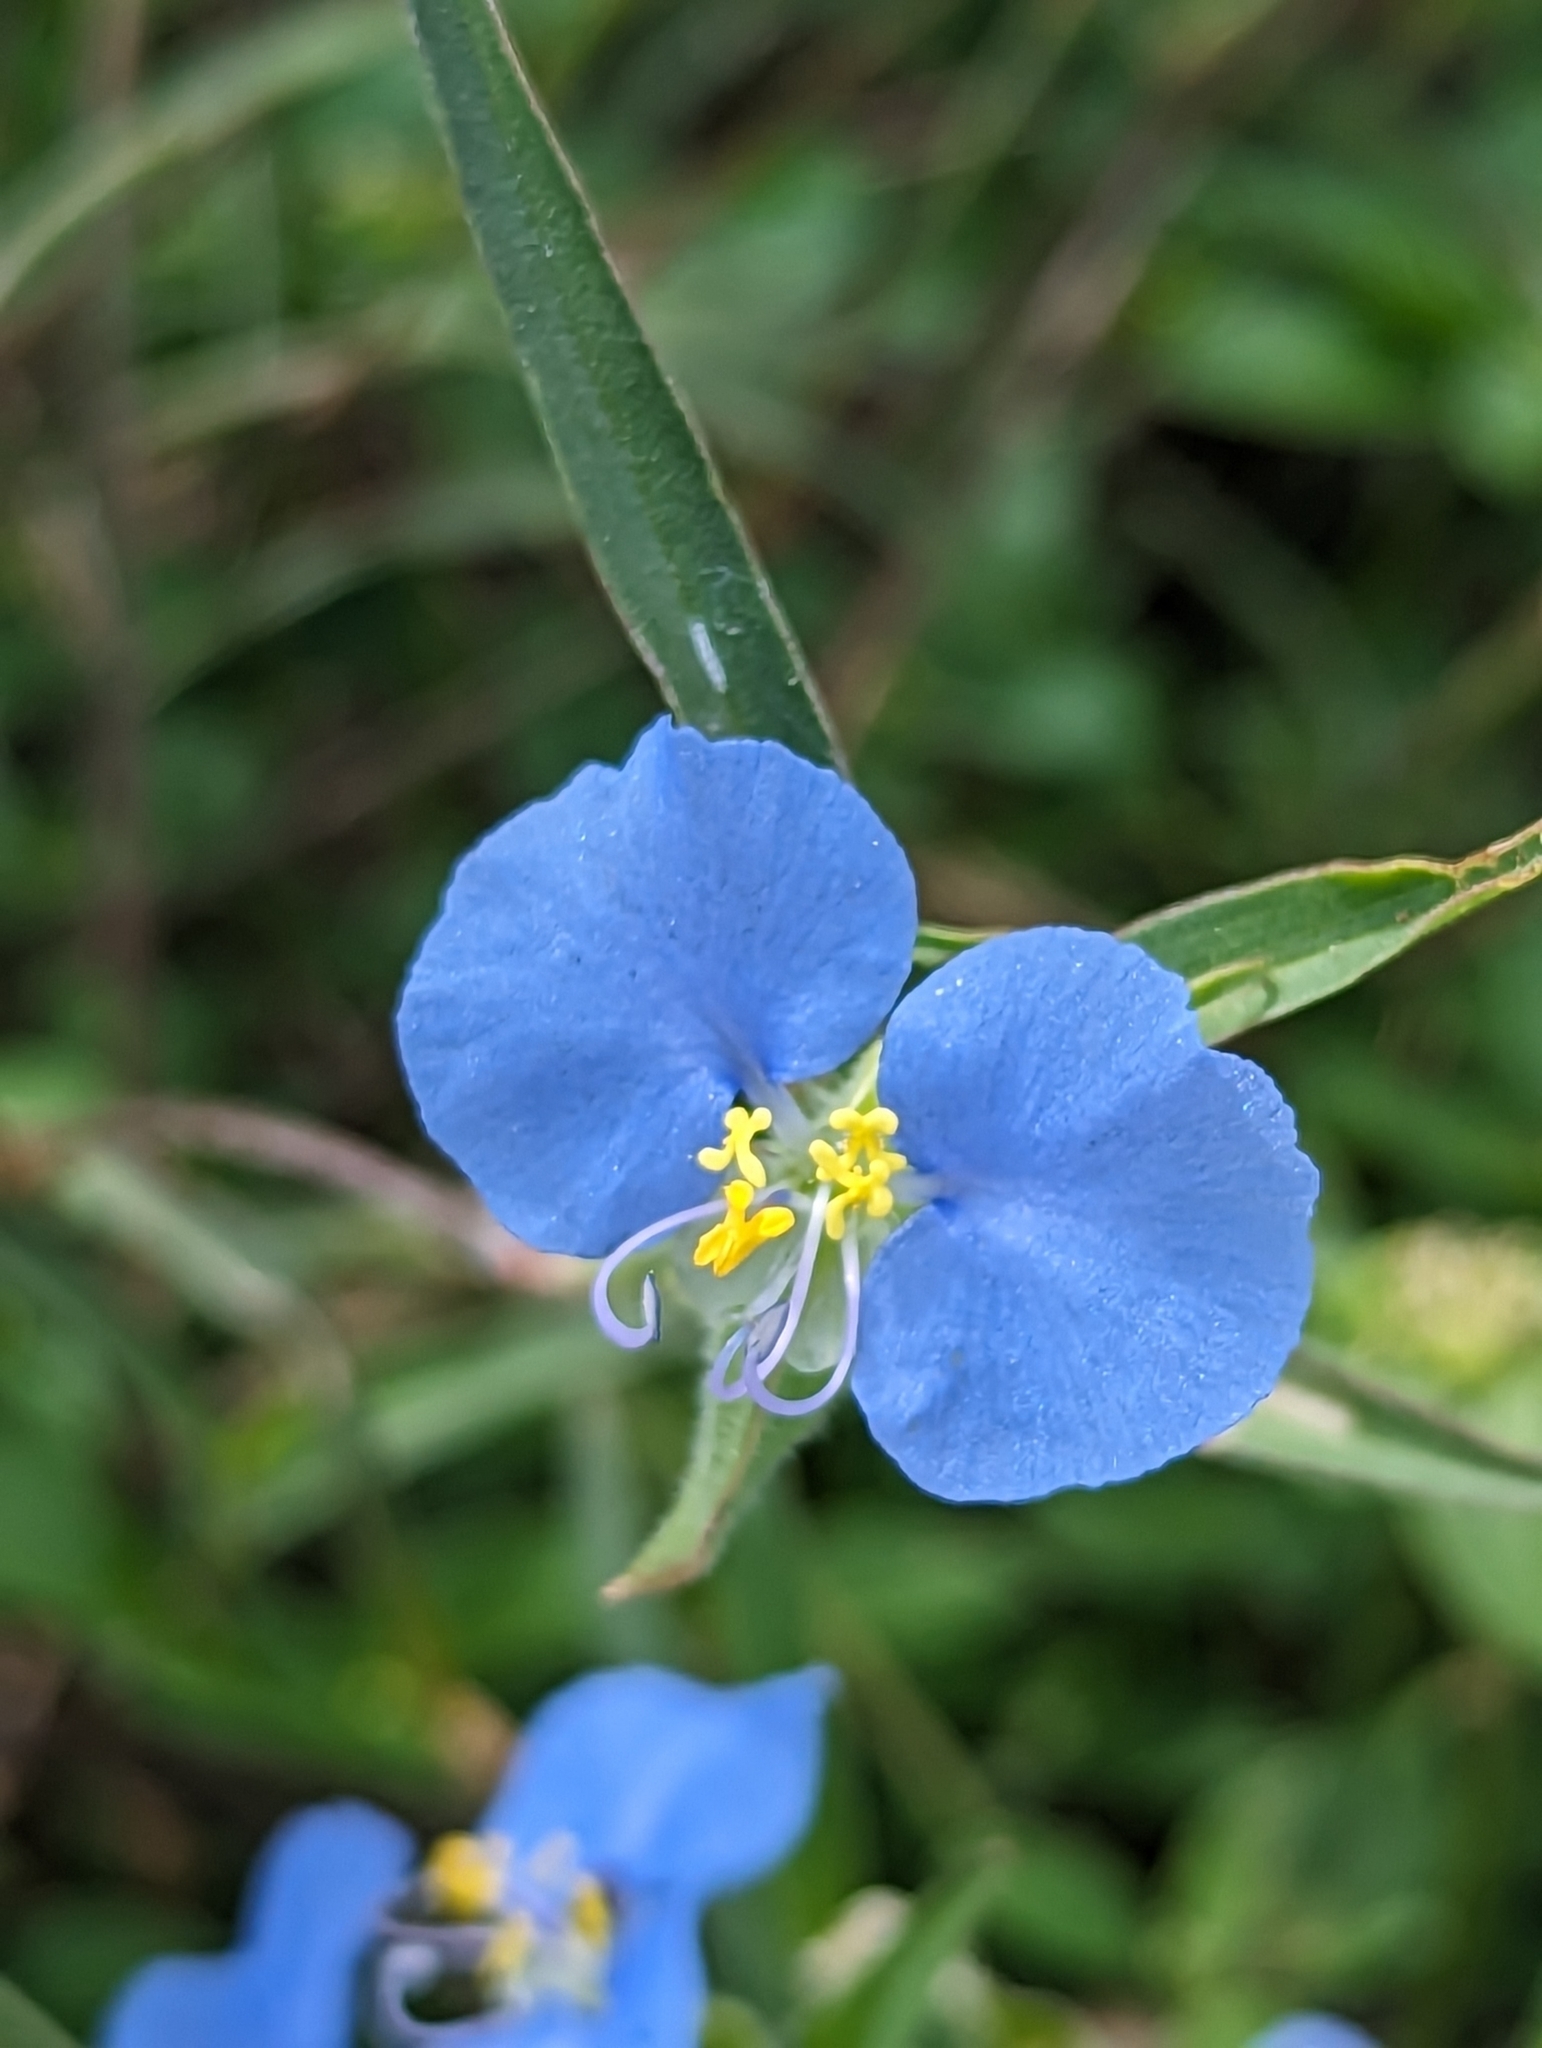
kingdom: Plantae
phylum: Tracheophyta
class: Liliopsida
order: Commelinales
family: Commelinaceae
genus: Commelina
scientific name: Commelina erecta
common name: Blousel blommetjie
